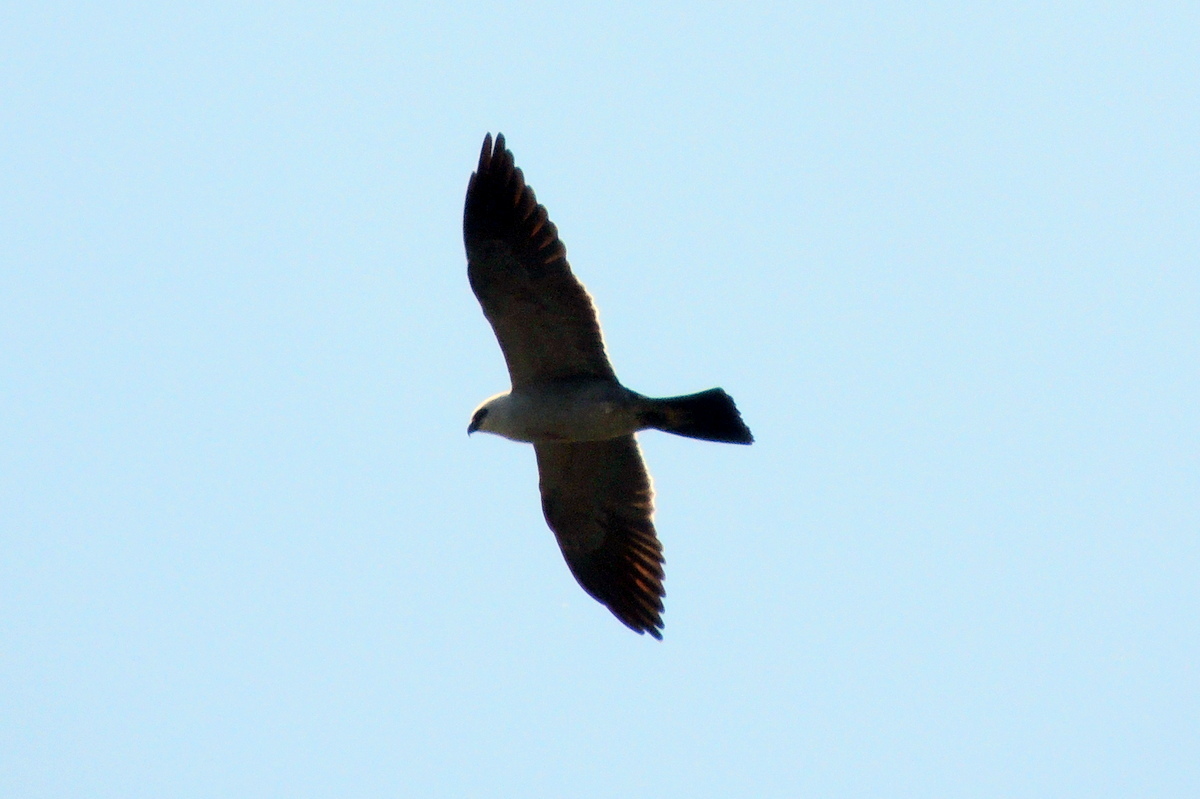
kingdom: Animalia
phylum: Chordata
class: Aves
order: Accipitriformes
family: Accipitridae
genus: Ictinia
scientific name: Ictinia mississippiensis
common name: Mississippi kite
